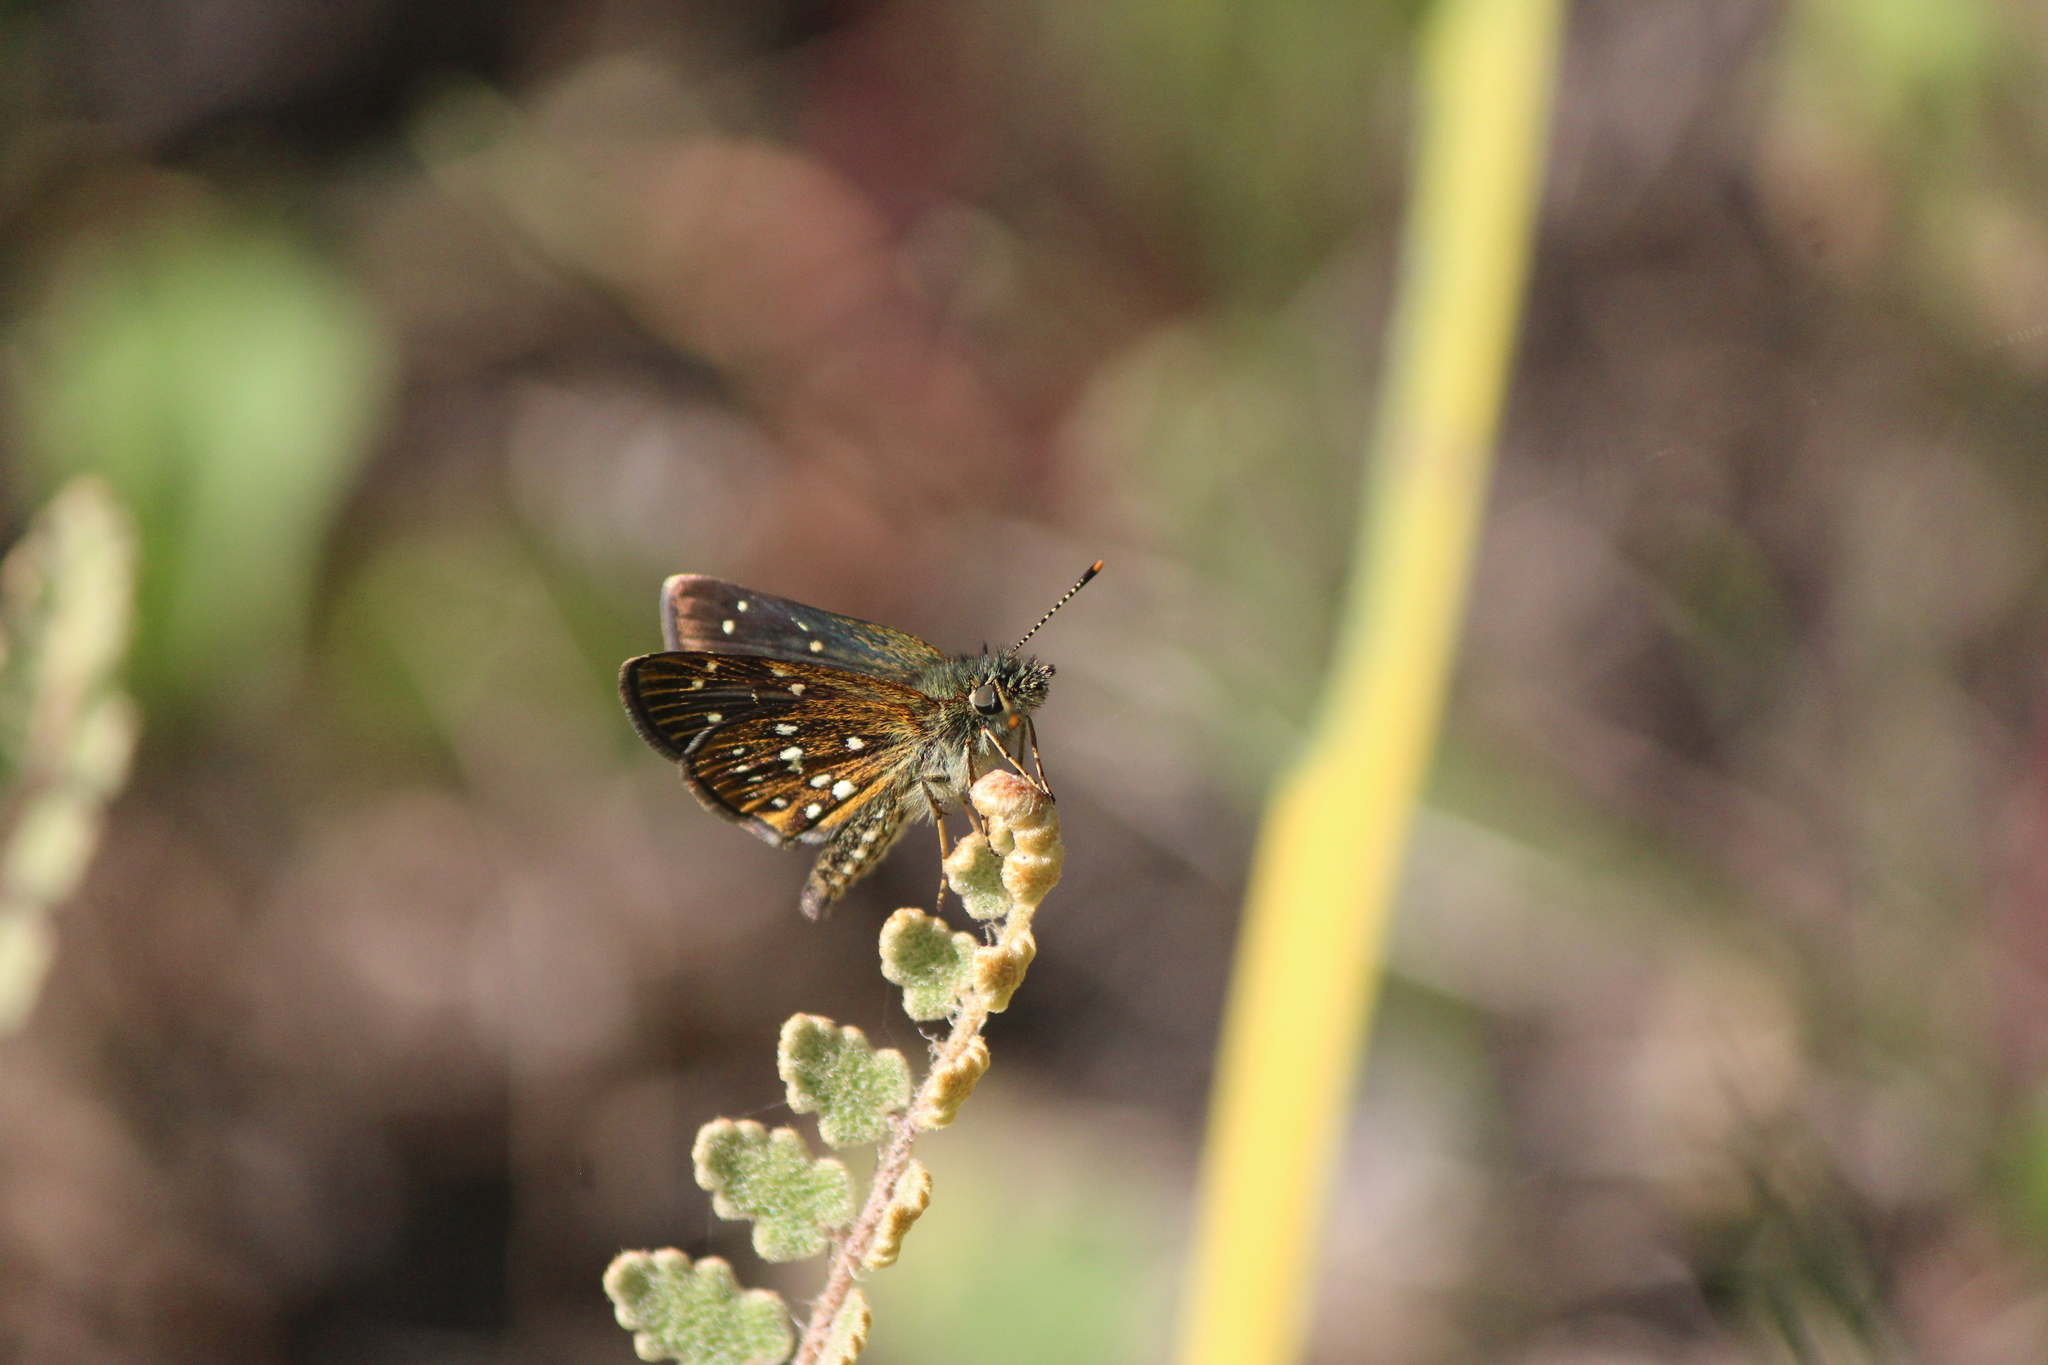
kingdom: Animalia
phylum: Arthropoda
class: Insecta
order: Lepidoptera
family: Hesperiidae
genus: Piruna
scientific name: Piruna aea
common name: Many-spotted skipperling
